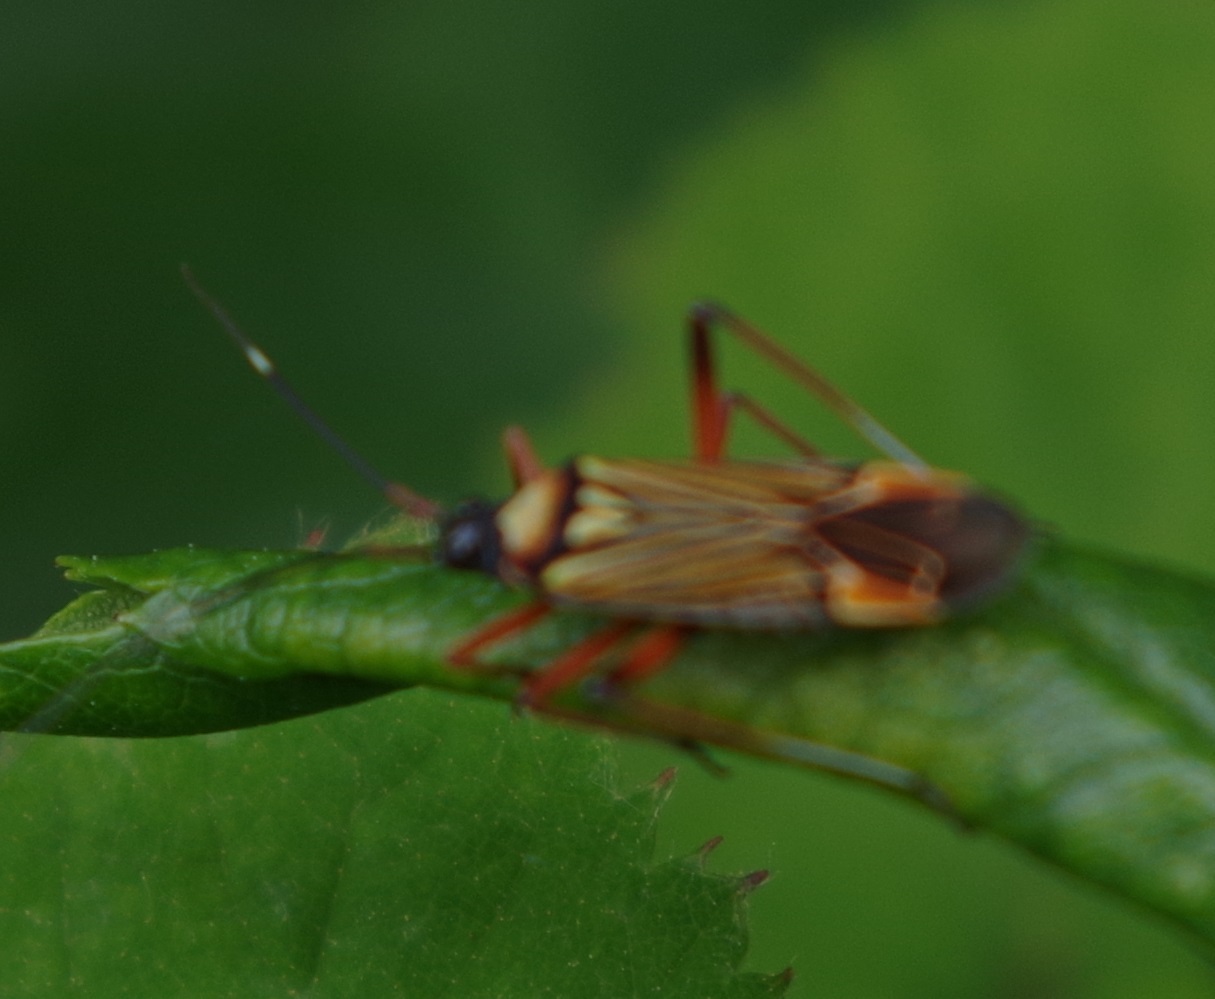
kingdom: Animalia
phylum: Arthropoda
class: Insecta
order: Hemiptera
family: Miridae
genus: Miris
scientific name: Miris striatus
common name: Fine streaked bugkin
